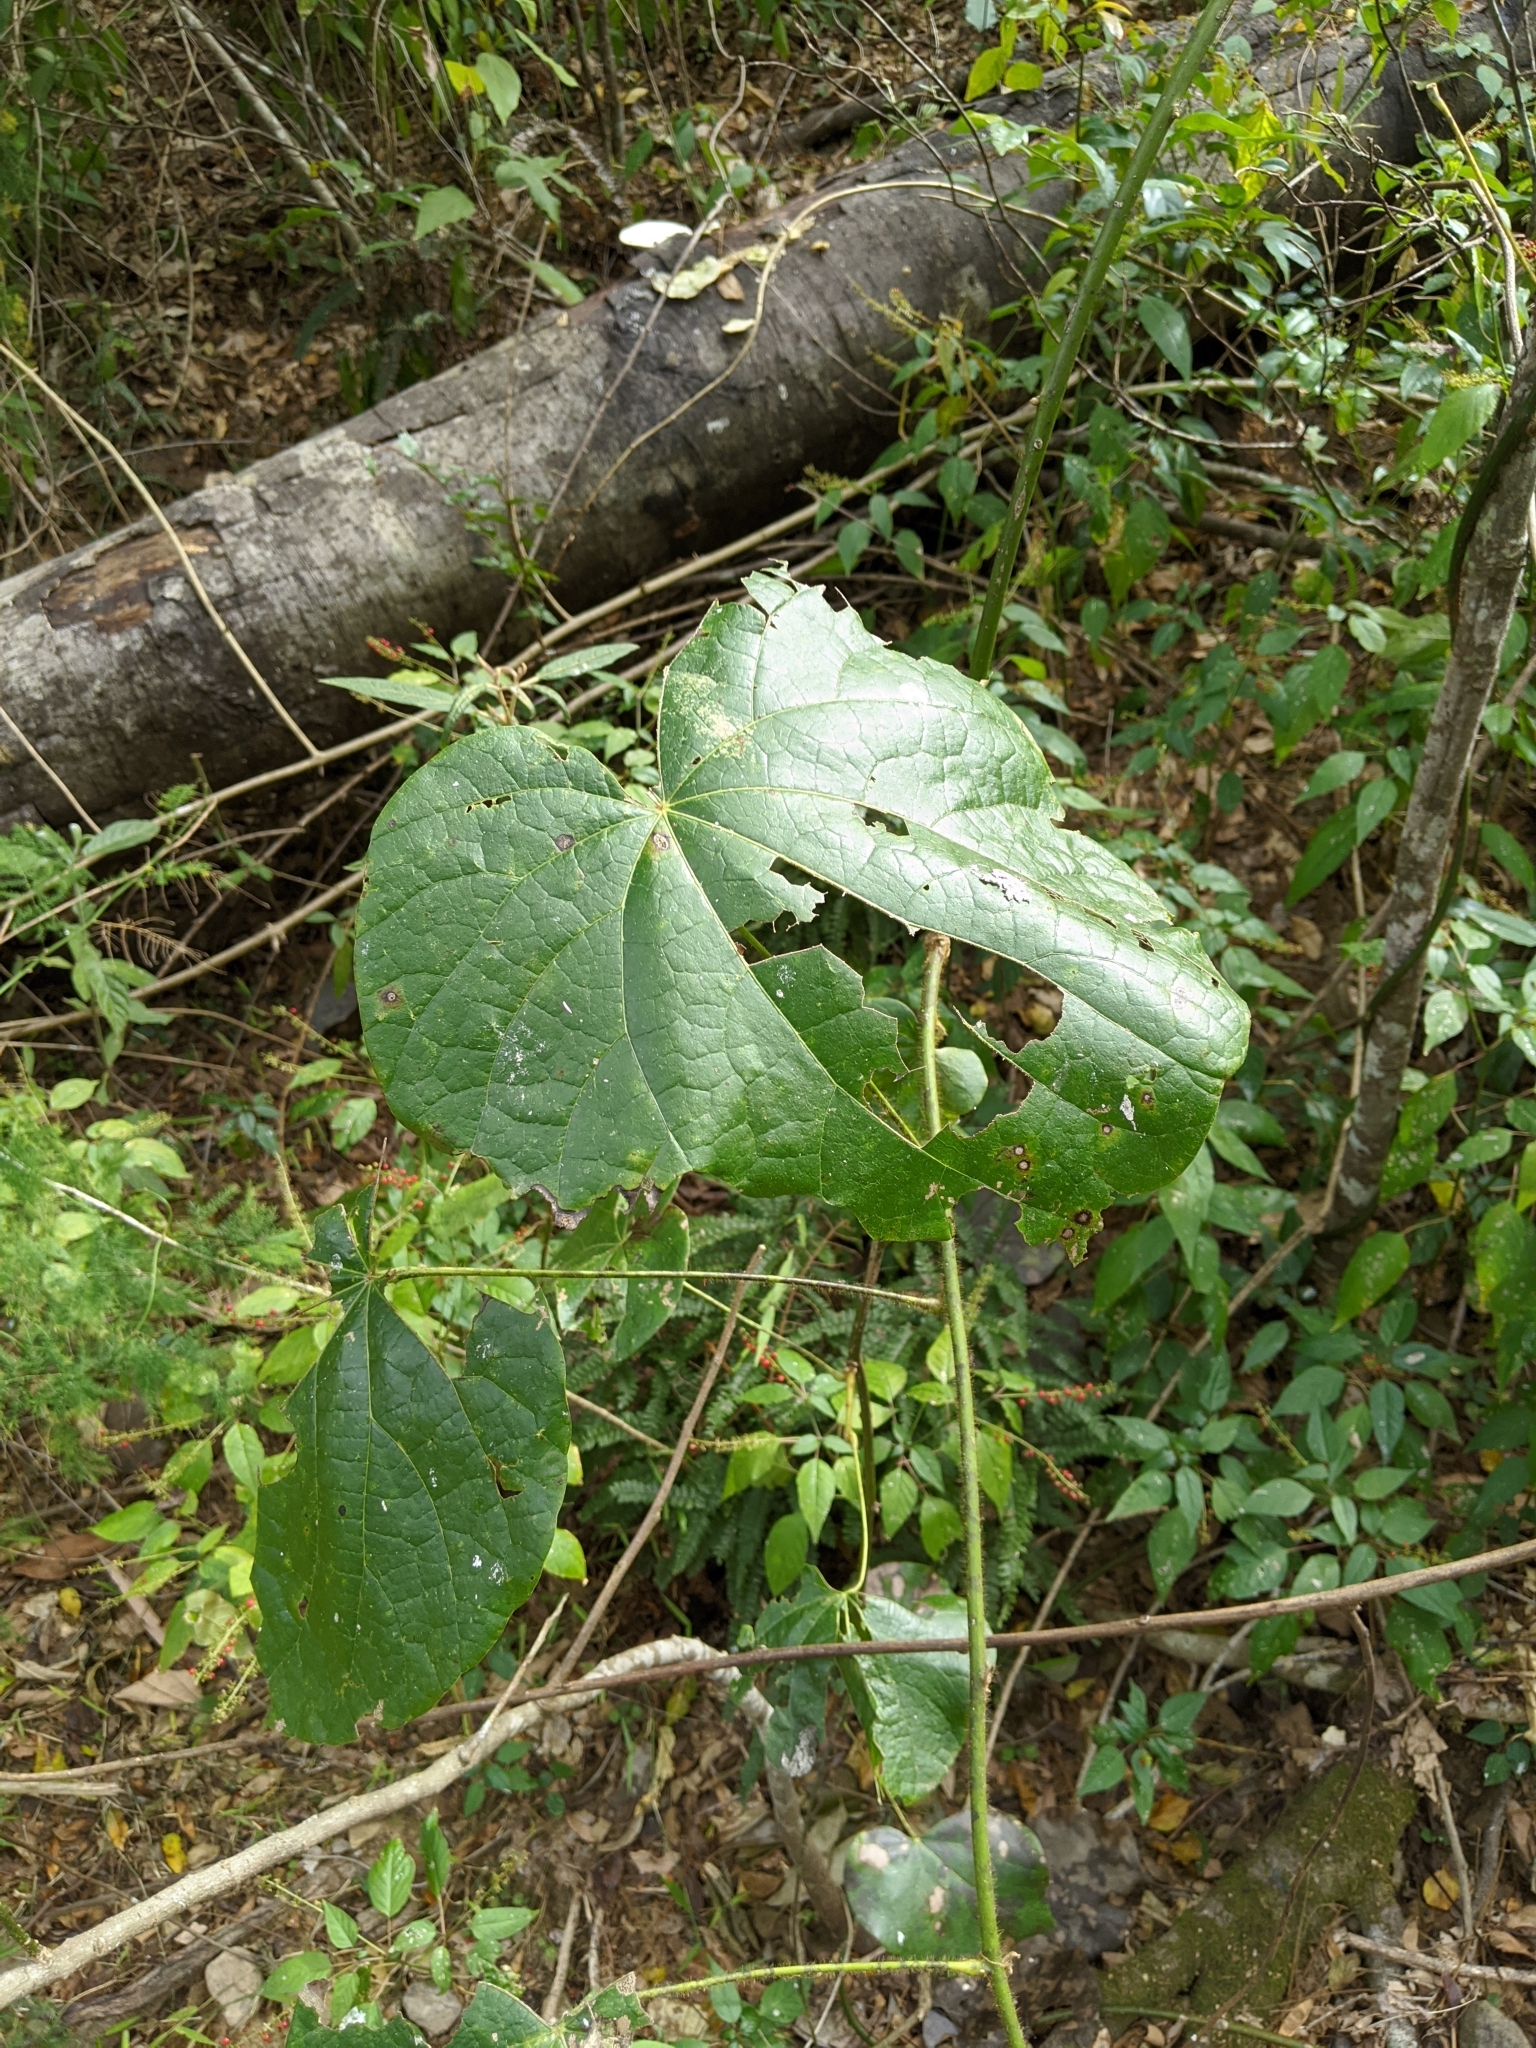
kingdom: Plantae
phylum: Tracheophyta
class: Magnoliopsida
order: Ranunculales
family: Menispermaceae
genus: Legnephora
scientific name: Legnephora moorei
